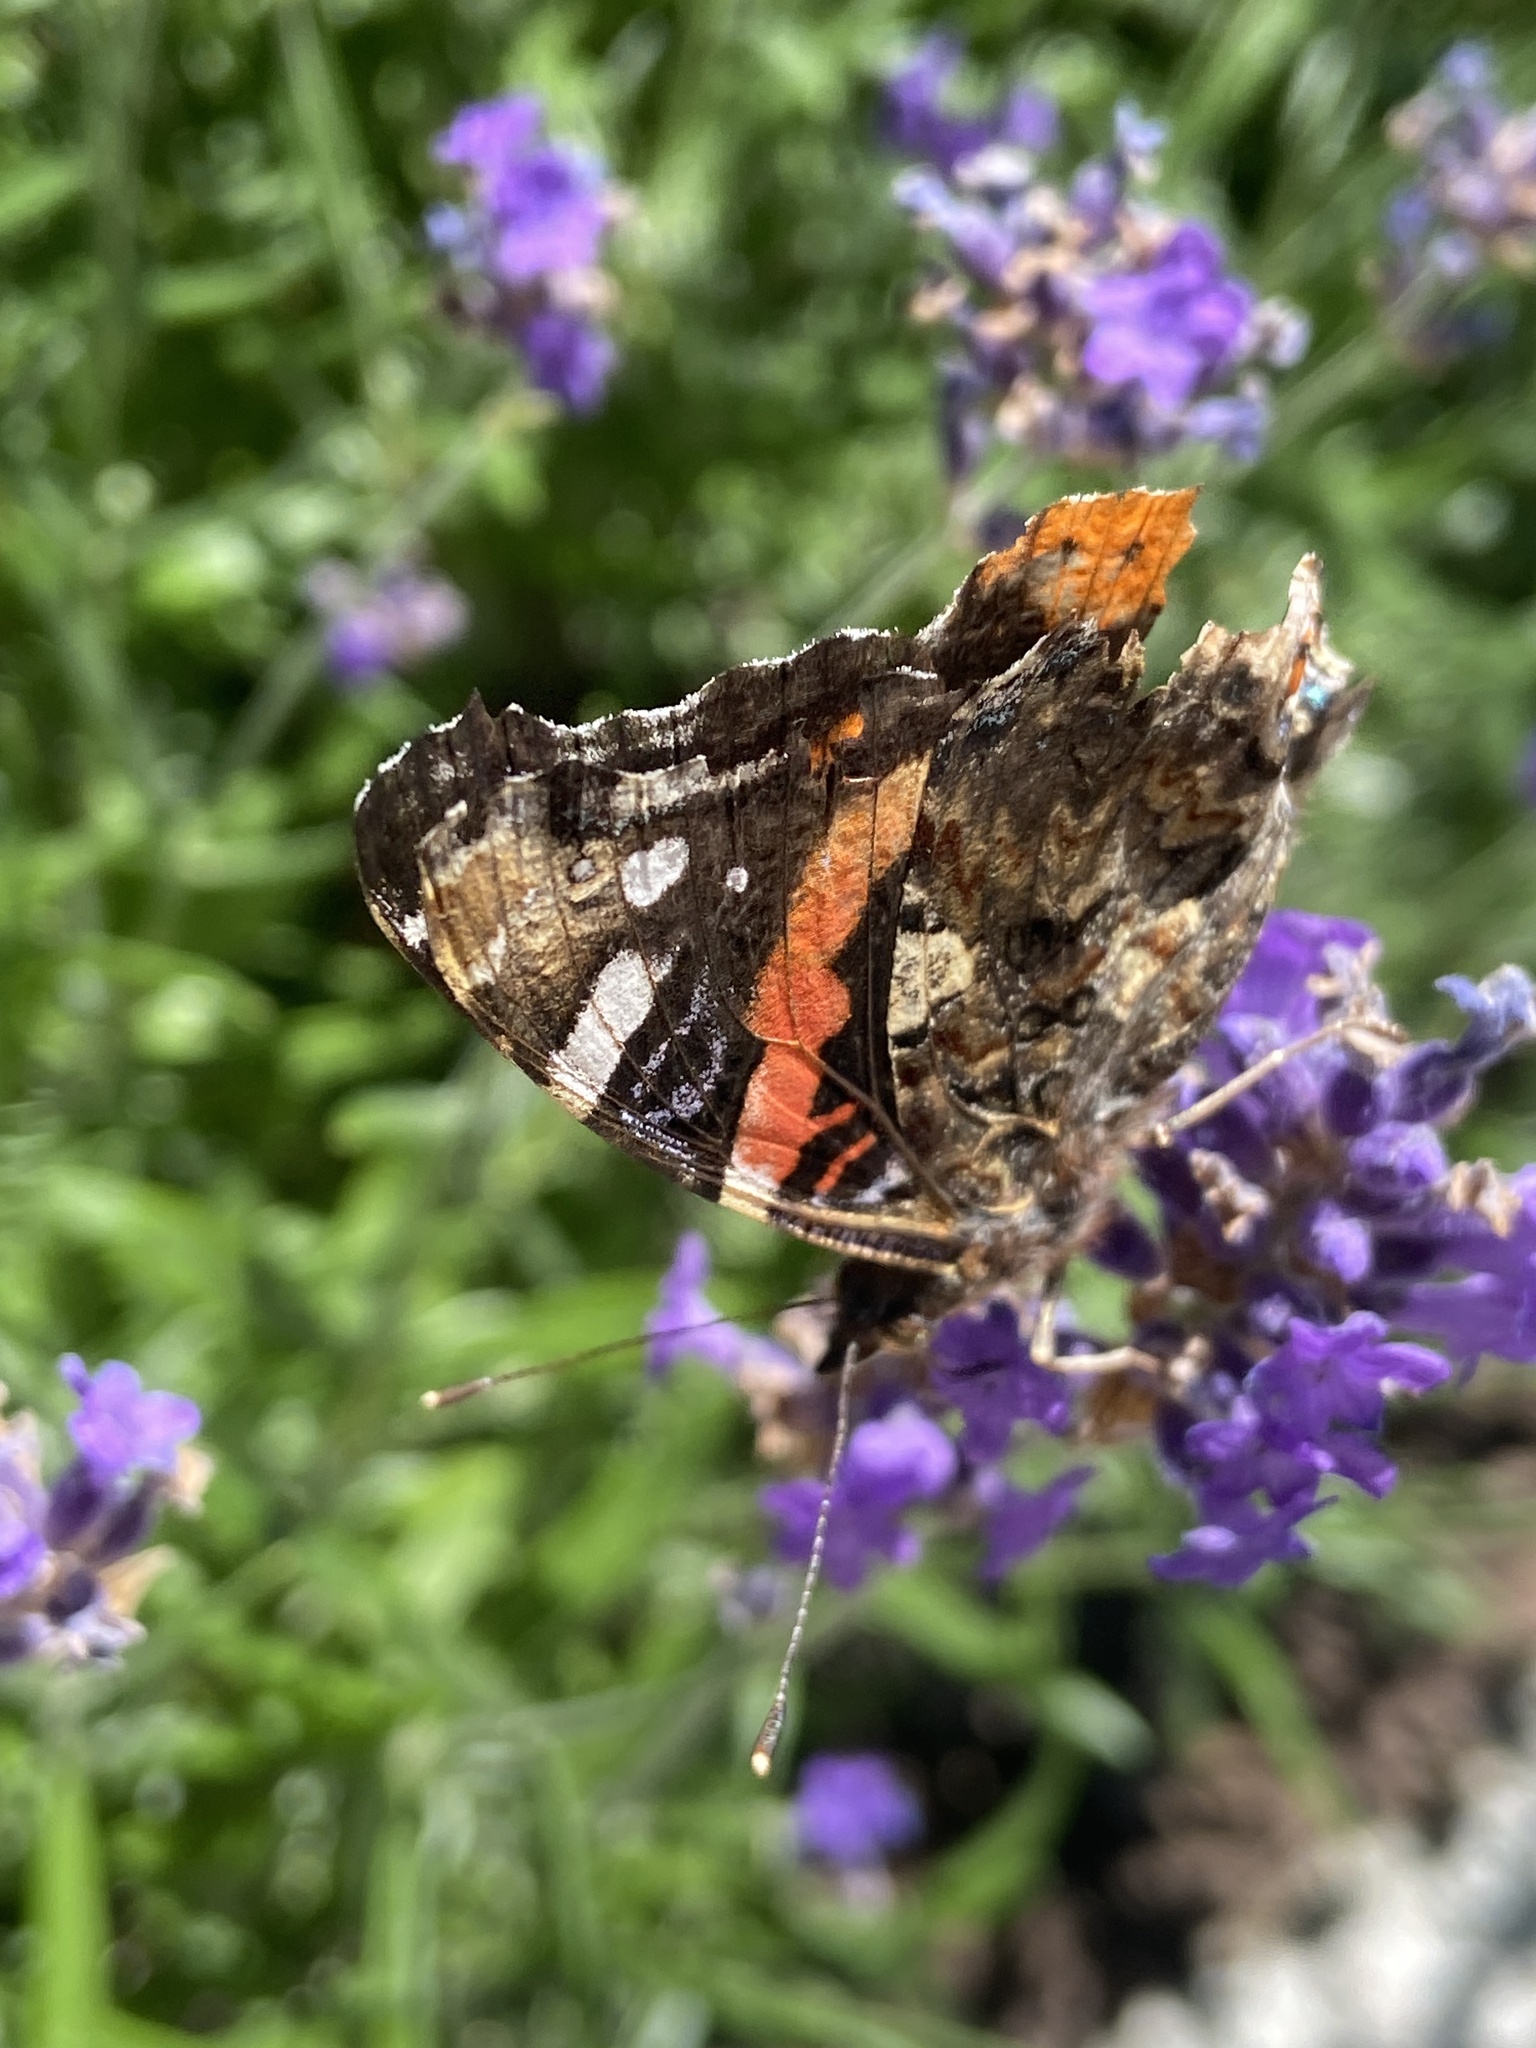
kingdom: Animalia
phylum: Arthropoda
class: Insecta
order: Lepidoptera
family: Nymphalidae
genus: Vanessa
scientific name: Vanessa atalanta
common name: Red admiral
